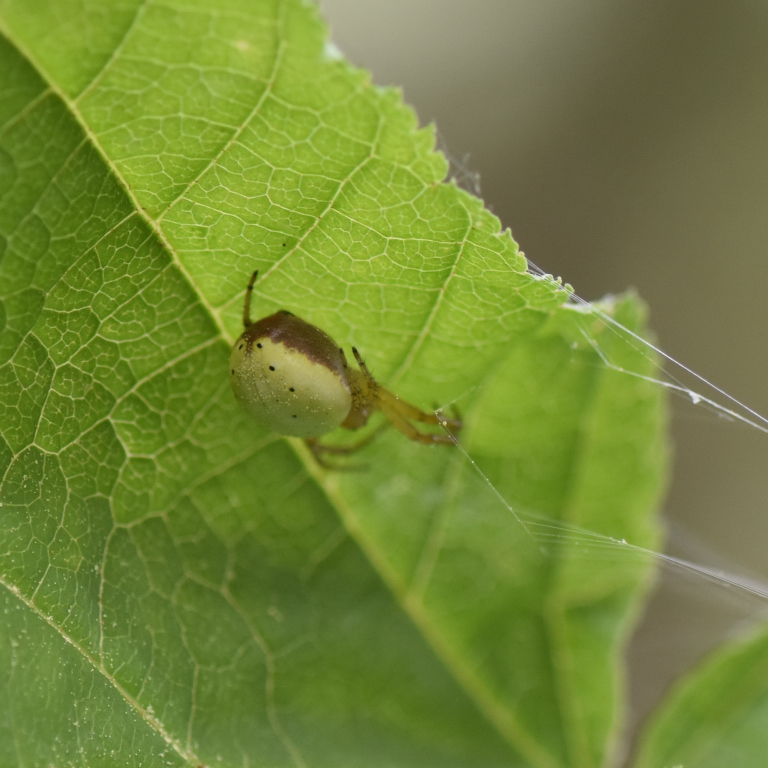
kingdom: Animalia
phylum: Arthropoda
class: Arachnida
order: Araneae
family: Araneidae
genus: Araniella
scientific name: Araniella displicata
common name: Sixspotted orb weaver
